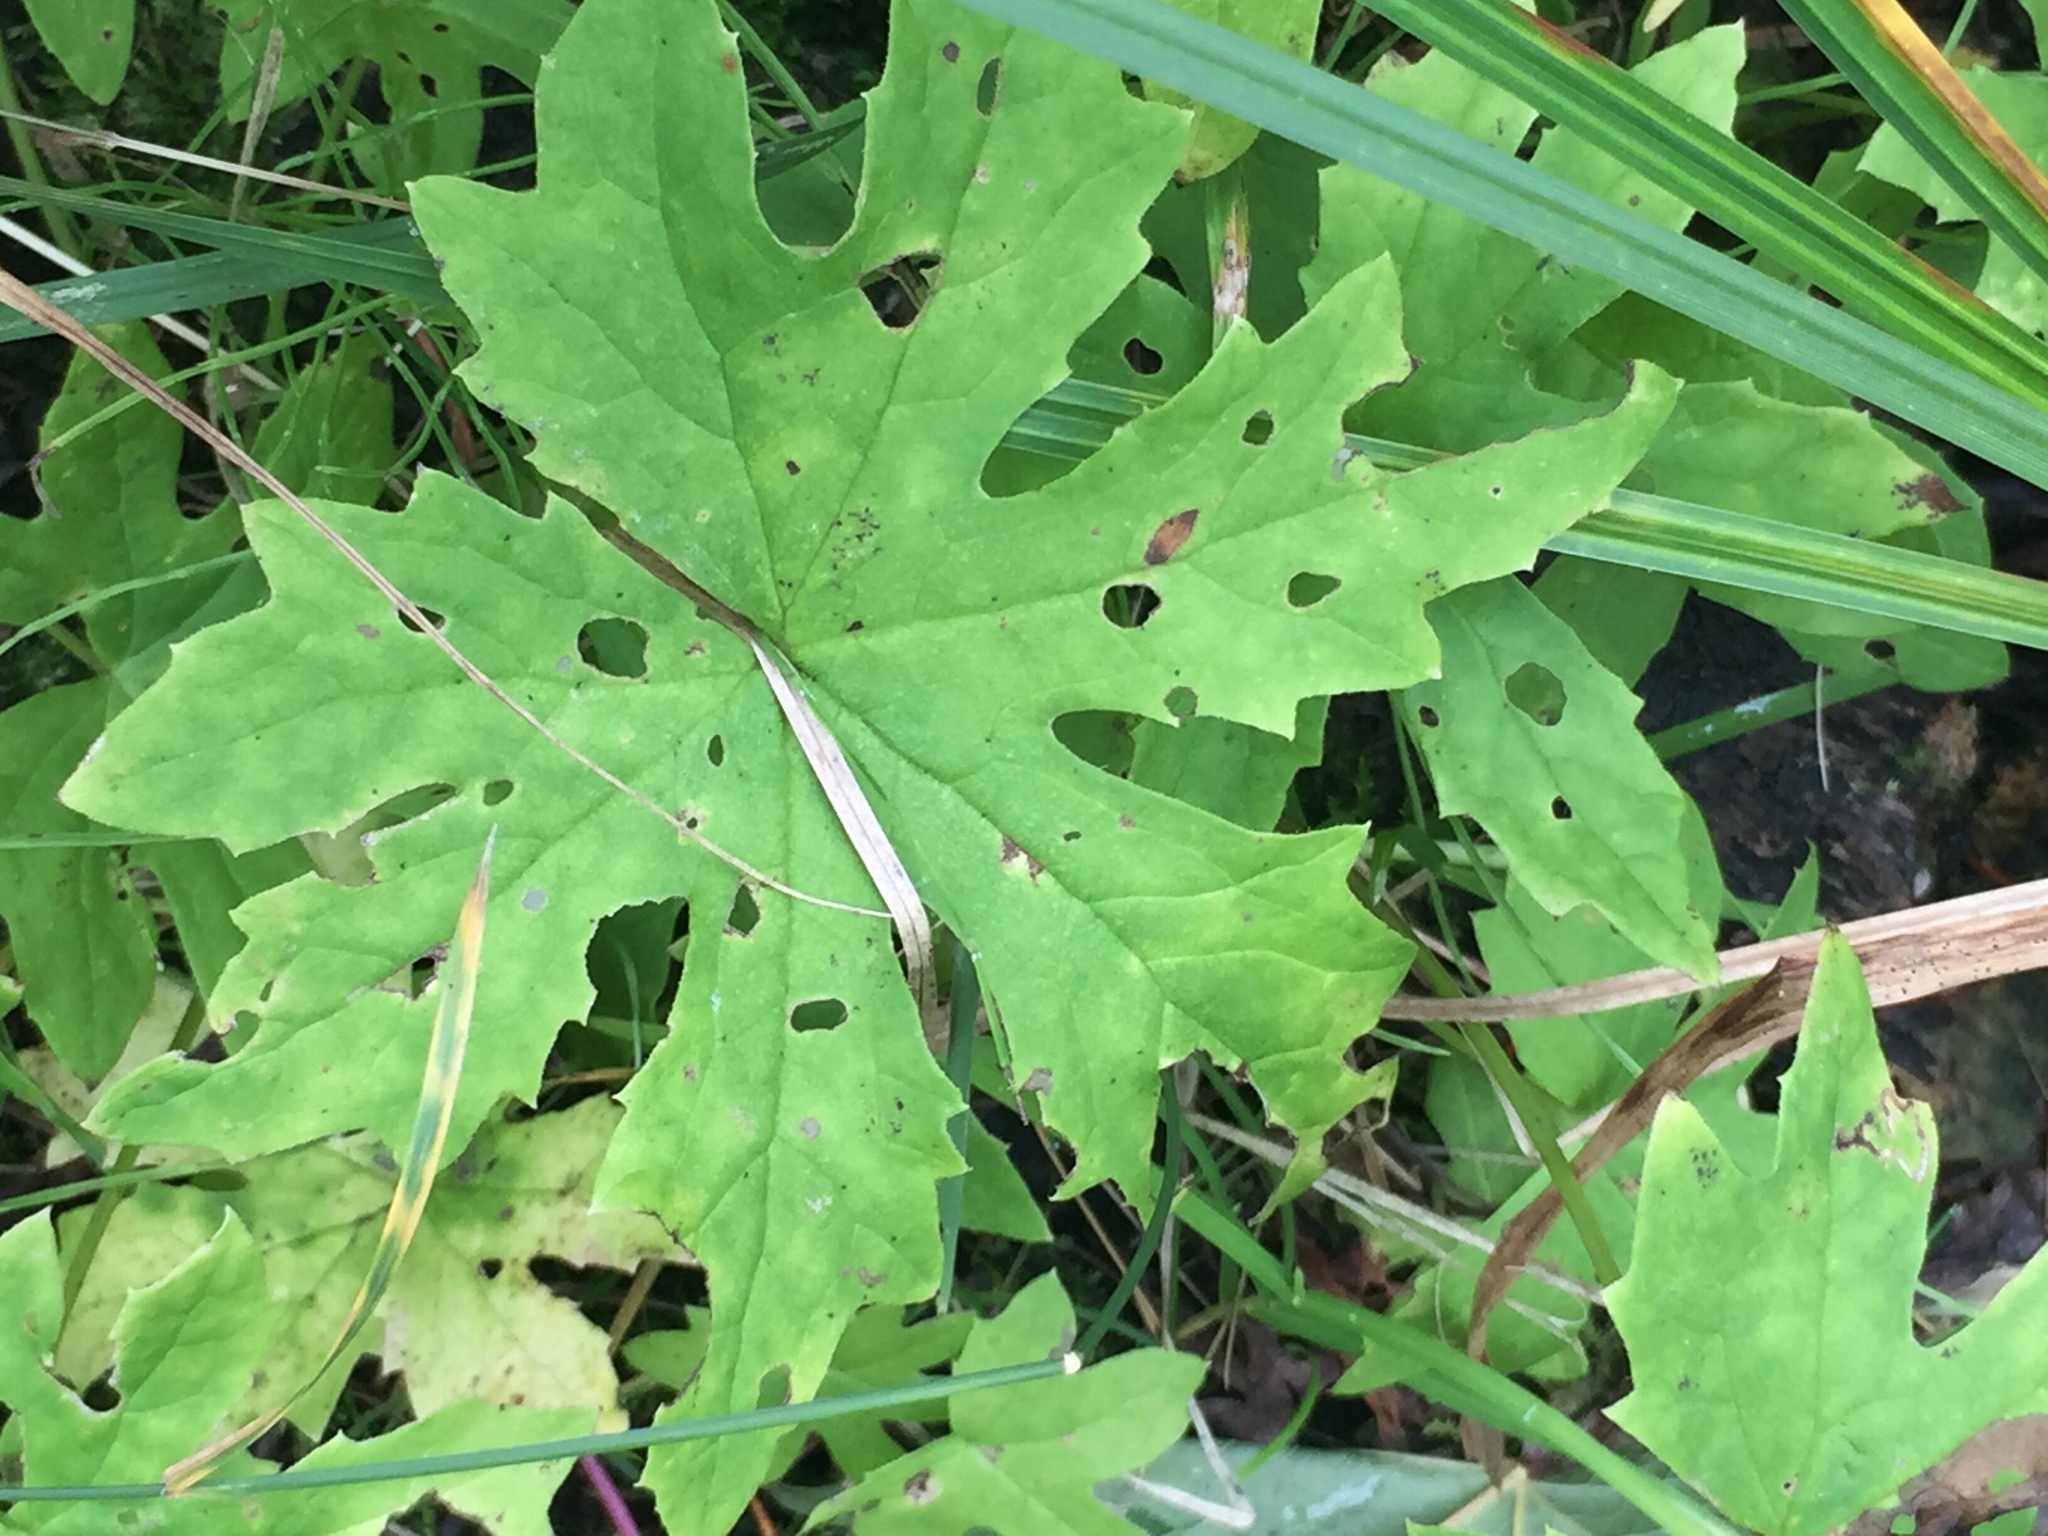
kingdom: Plantae
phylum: Tracheophyta
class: Magnoliopsida
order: Asterales
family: Asteraceae
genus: Petasites
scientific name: Petasites frigidus
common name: Arctic butterbur
